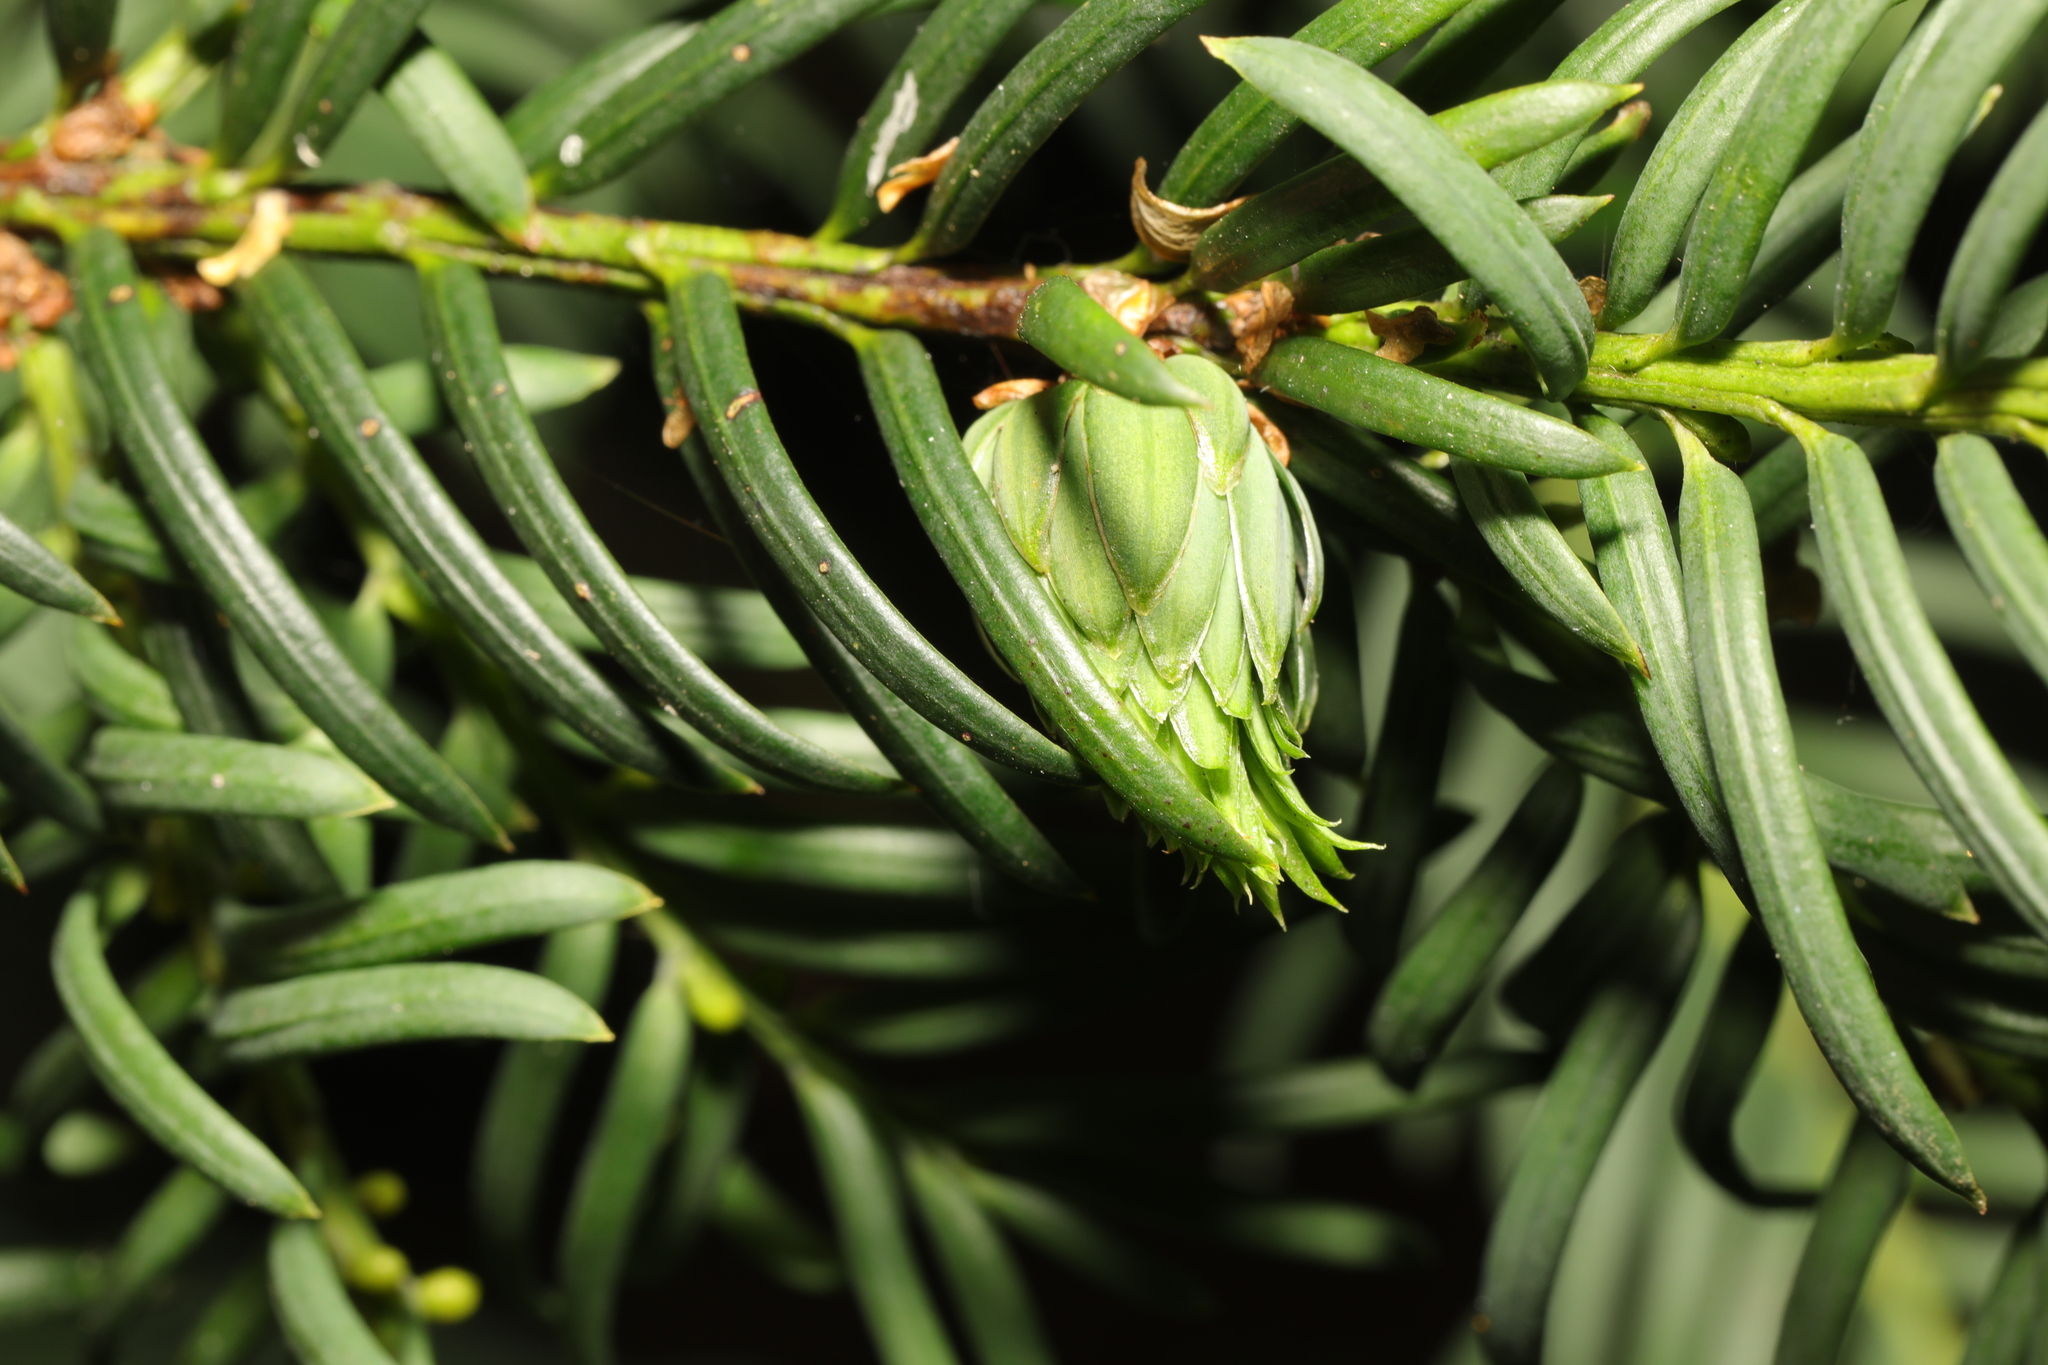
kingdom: Animalia
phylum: Arthropoda
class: Insecta
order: Diptera
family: Cecidomyiidae
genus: Taxomyia
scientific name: Taxomyia taxi
